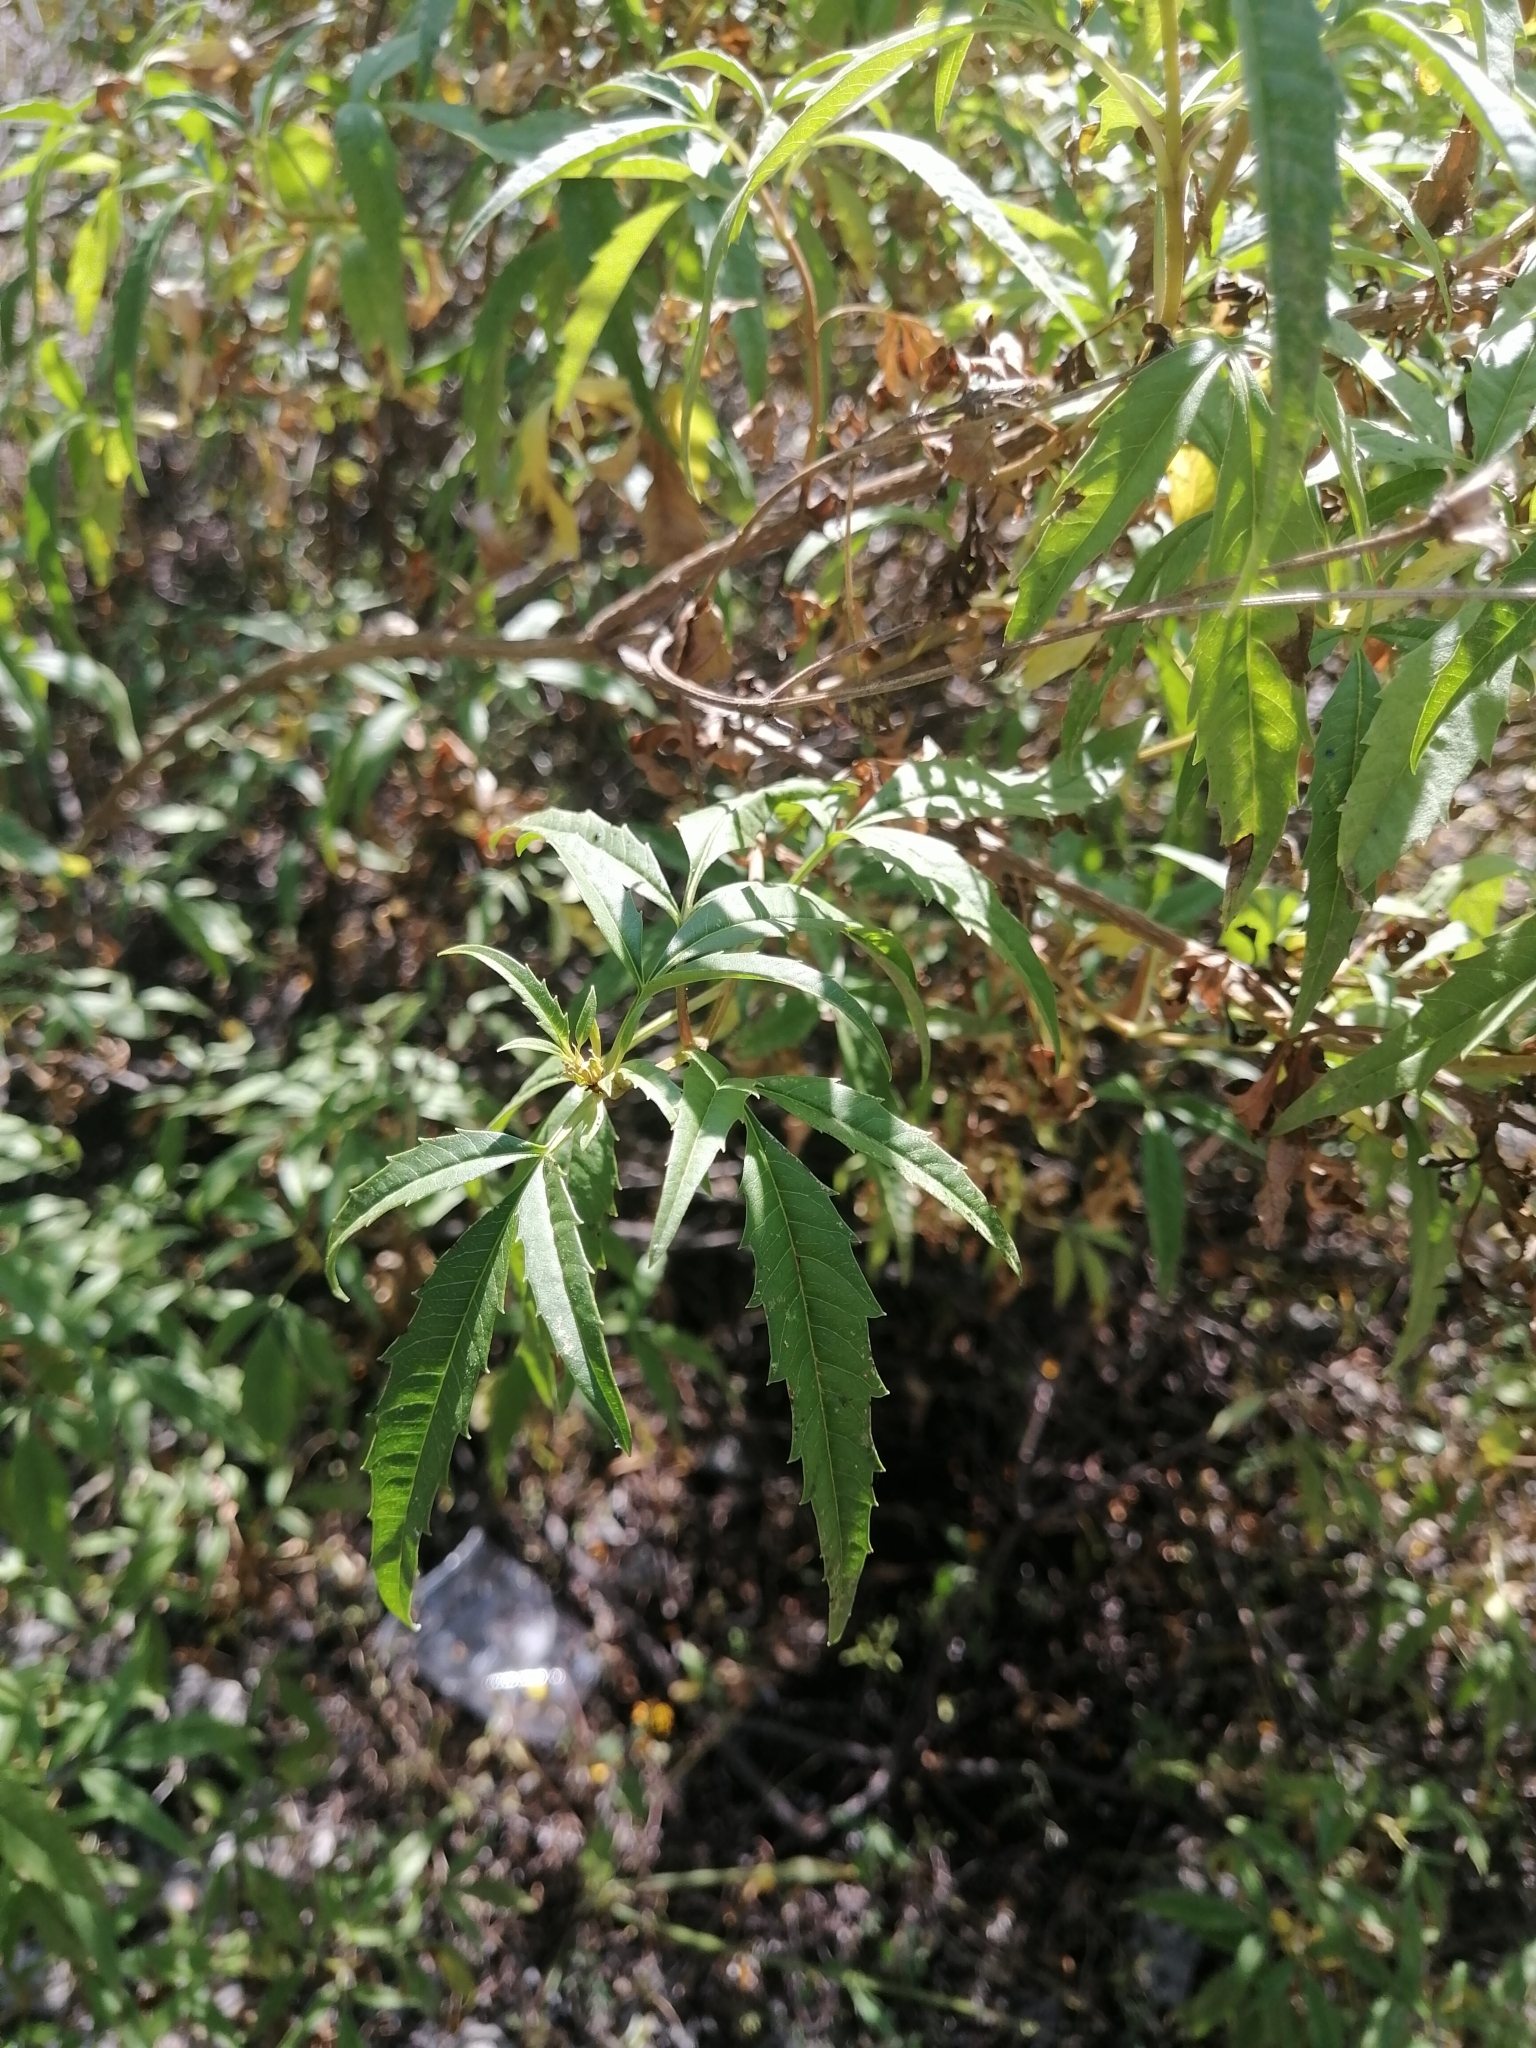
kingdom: Plantae
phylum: Tracheophyta
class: Magnoliopsida
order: Asterales
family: Asteraceae
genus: Electranthera
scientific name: Electranthera mutica
